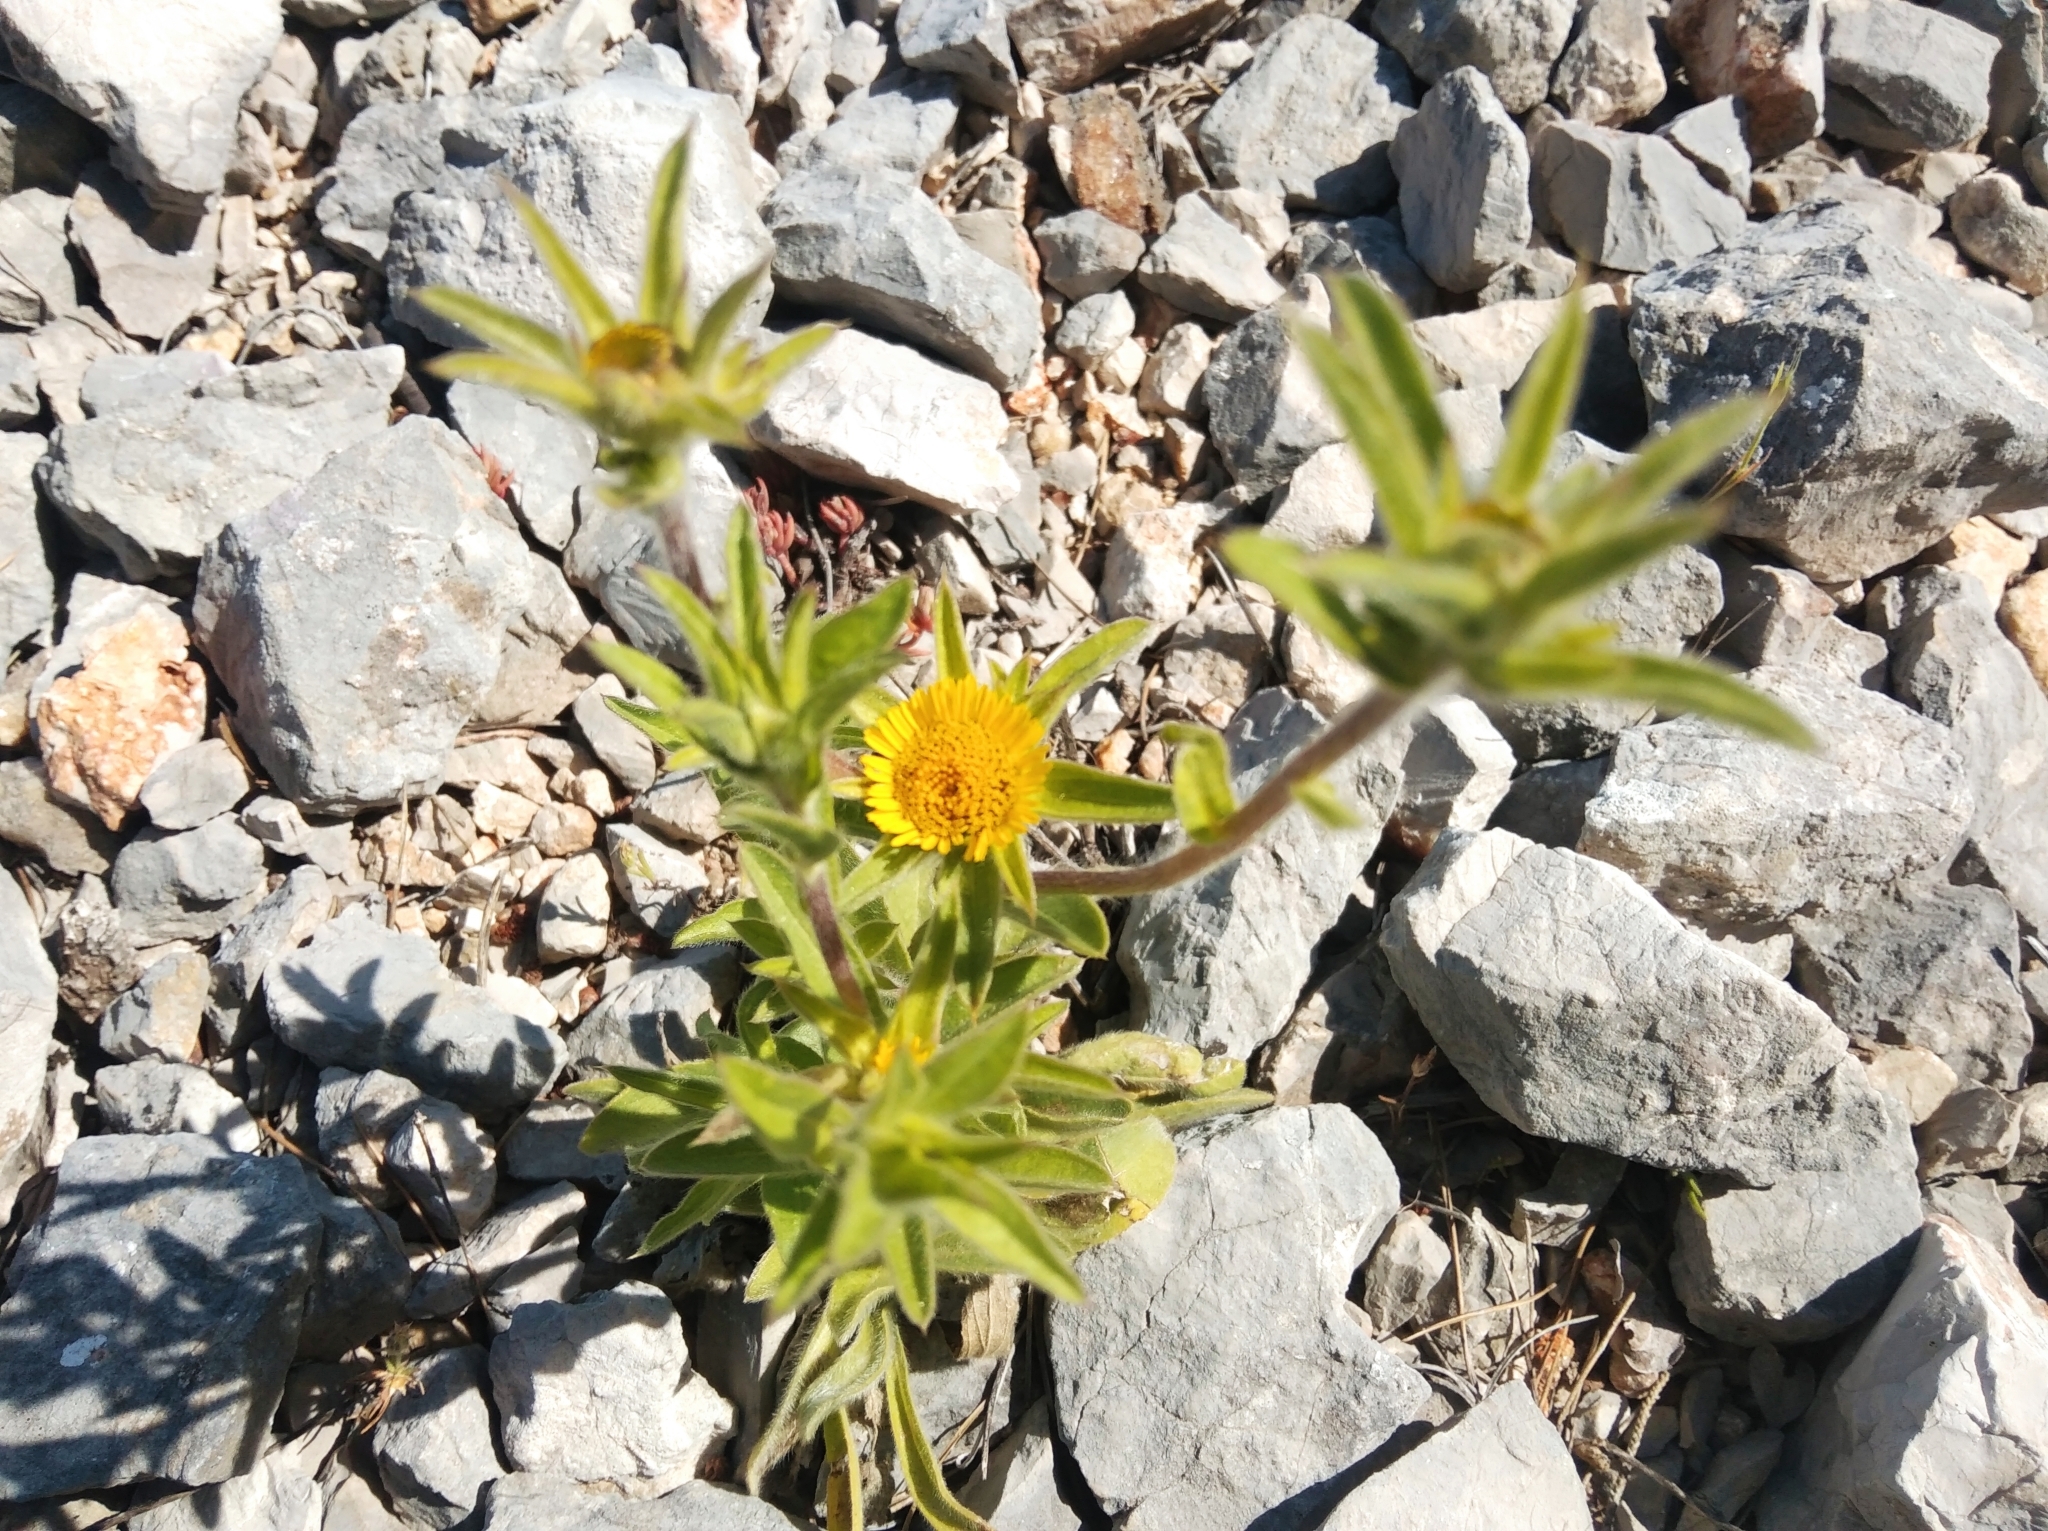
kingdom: Plantae
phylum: Tracheophyta
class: Magnoliopsida
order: Asterales
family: Asteraceae
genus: Pallenis
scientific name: Pallenis spinosa
